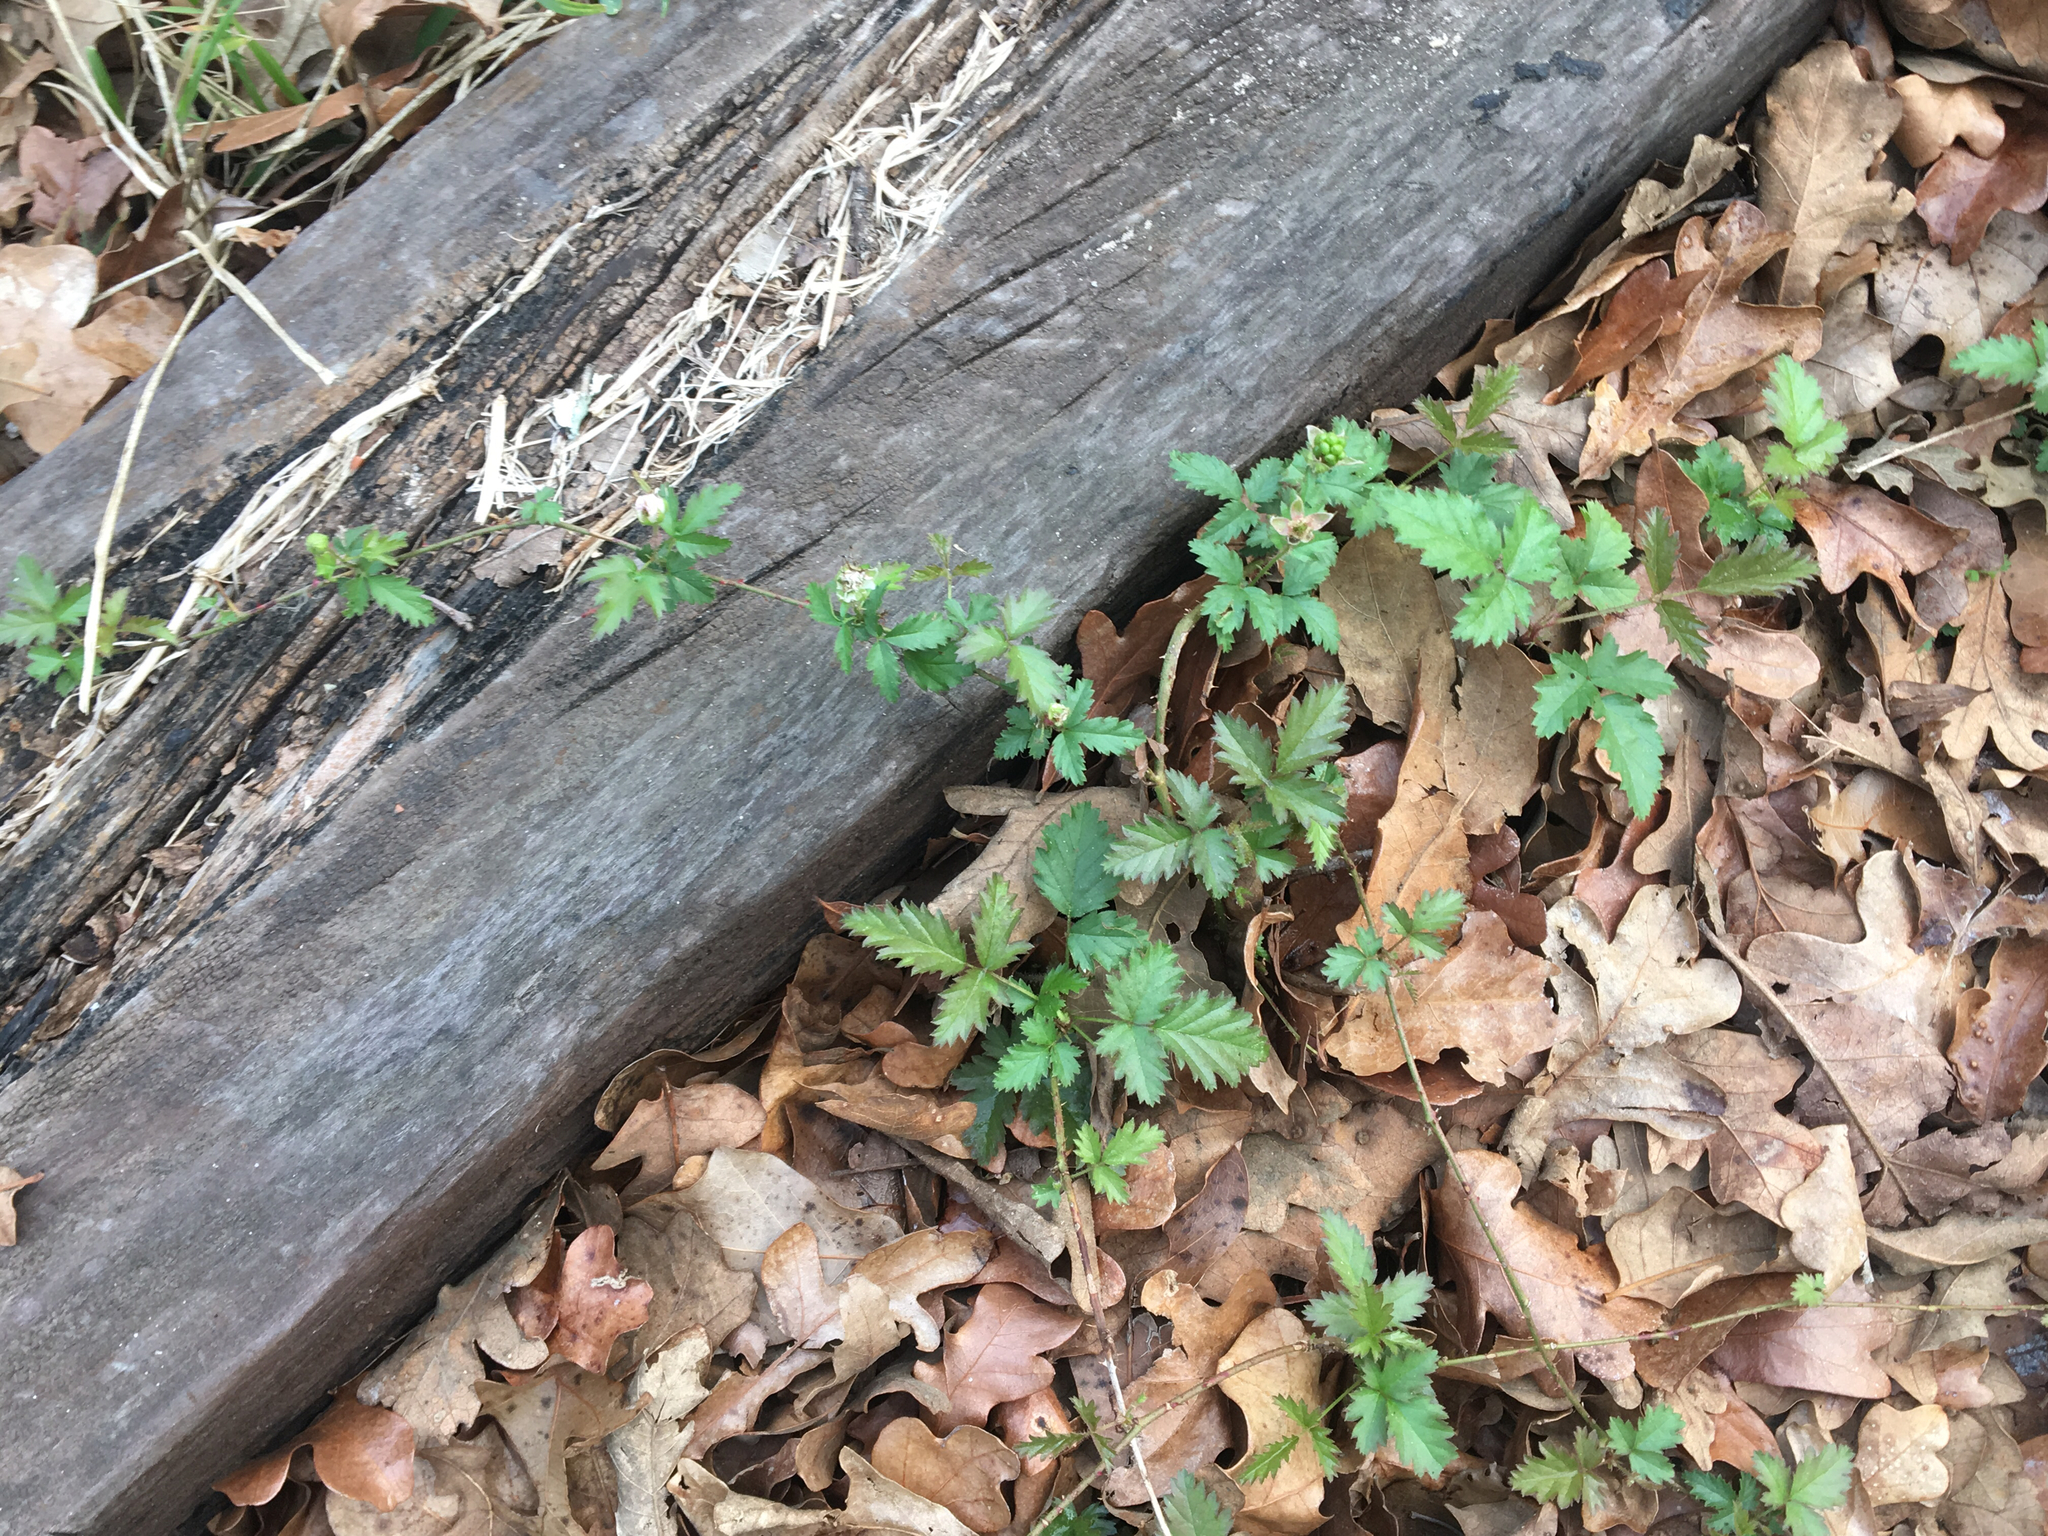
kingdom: Plantae
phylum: Tracheophyta
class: Magnoliopsida
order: Rosales
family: Rosaceae
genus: Rubus
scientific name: Rubus trivialis
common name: Southern dewberry
